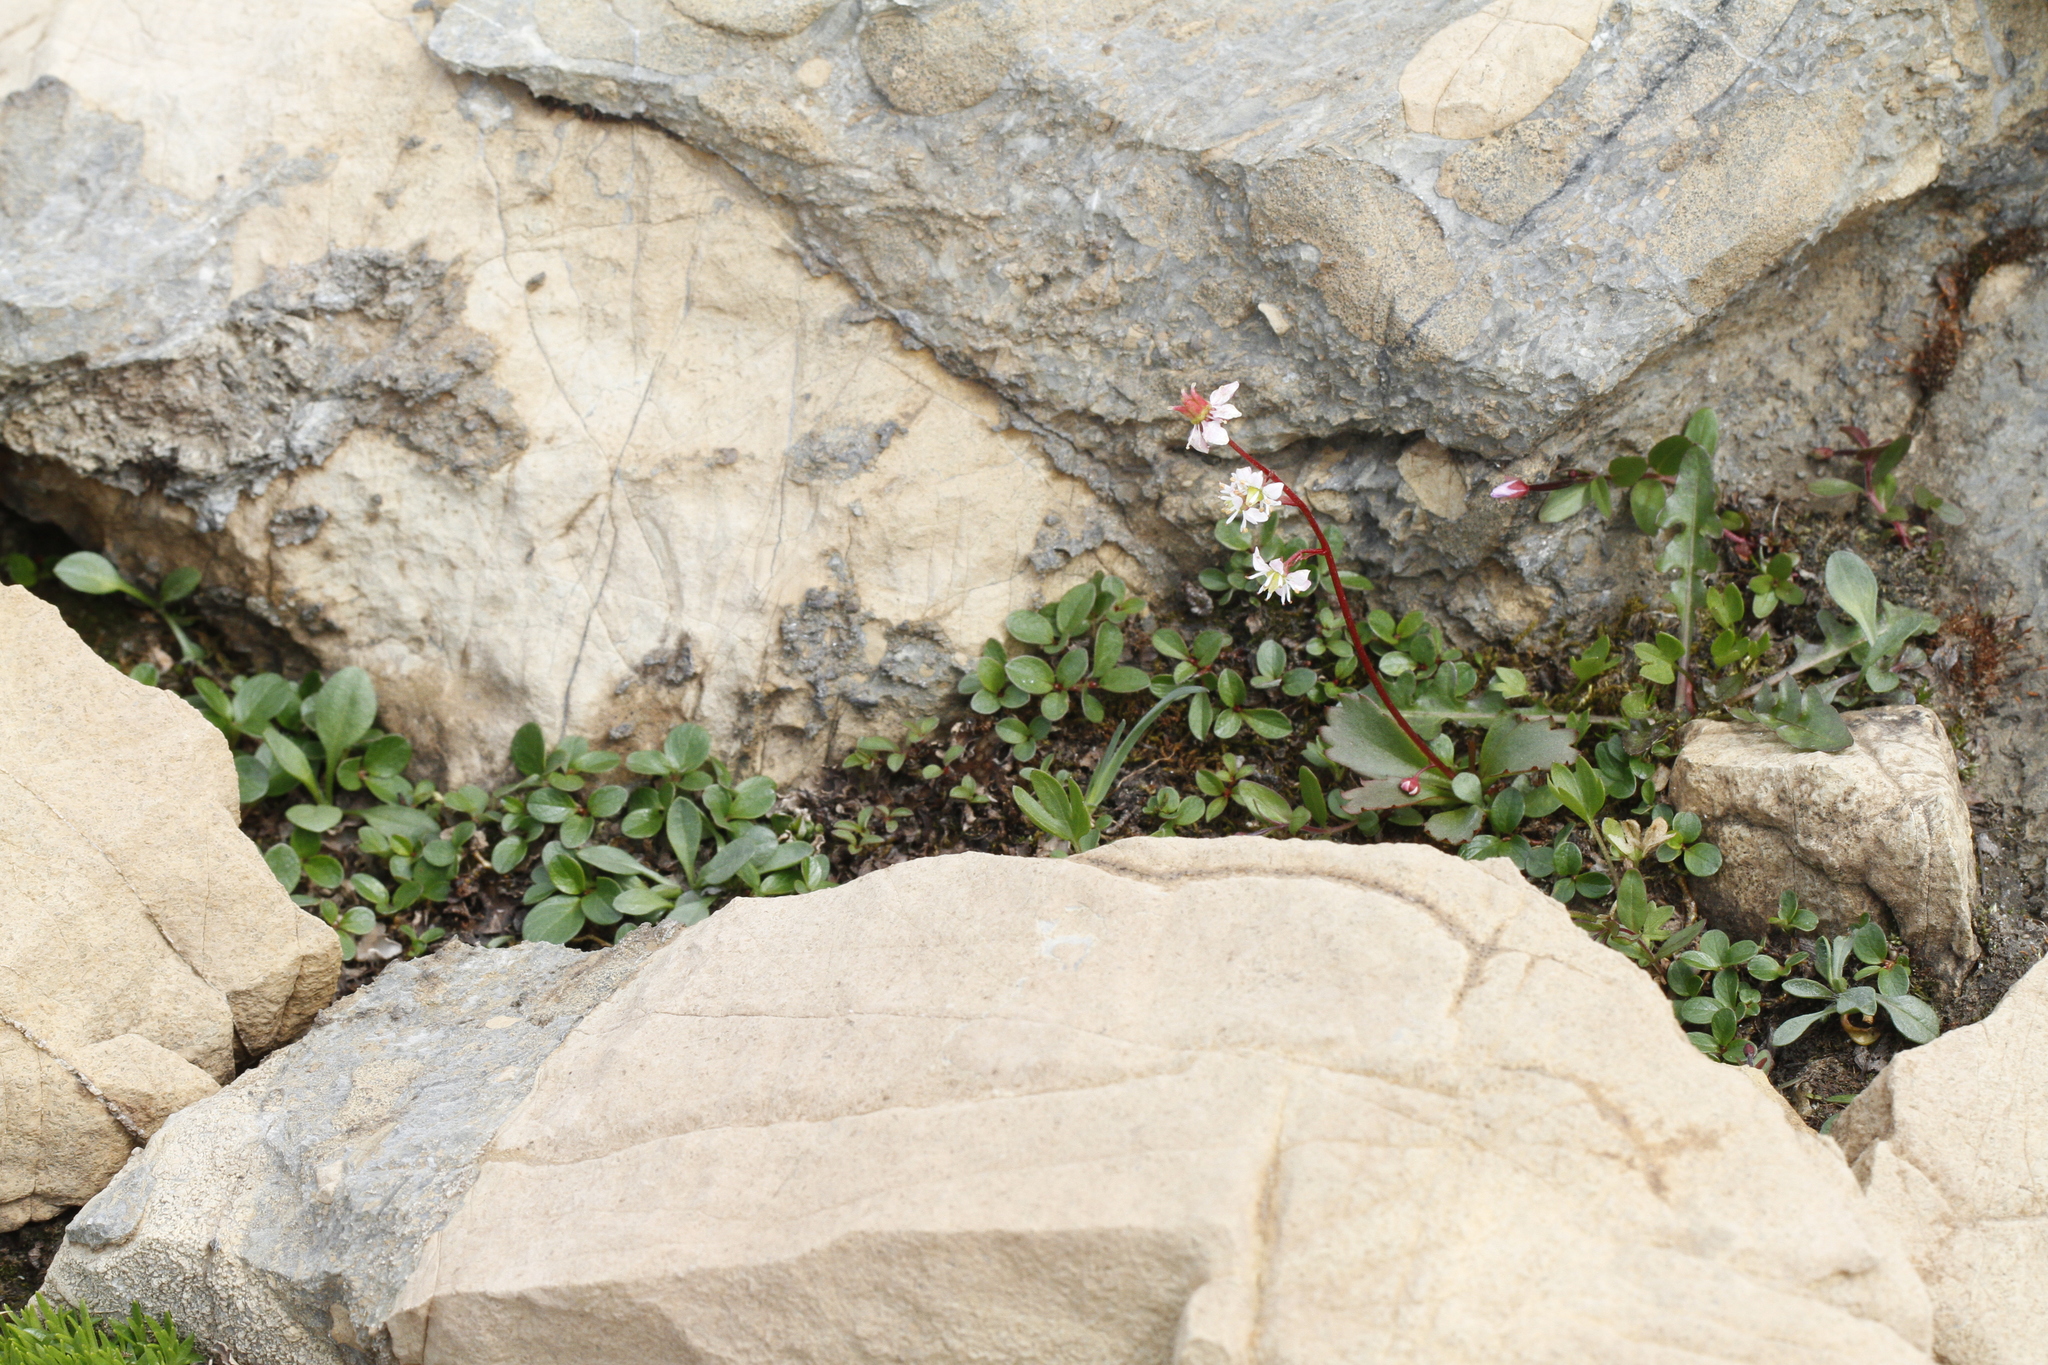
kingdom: Plantae
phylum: Tracheophyta
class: Magnoliopsida
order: Malpighiales
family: Salicaceae
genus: Salix
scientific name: Salix nivalis
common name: Dwarf snow willow
